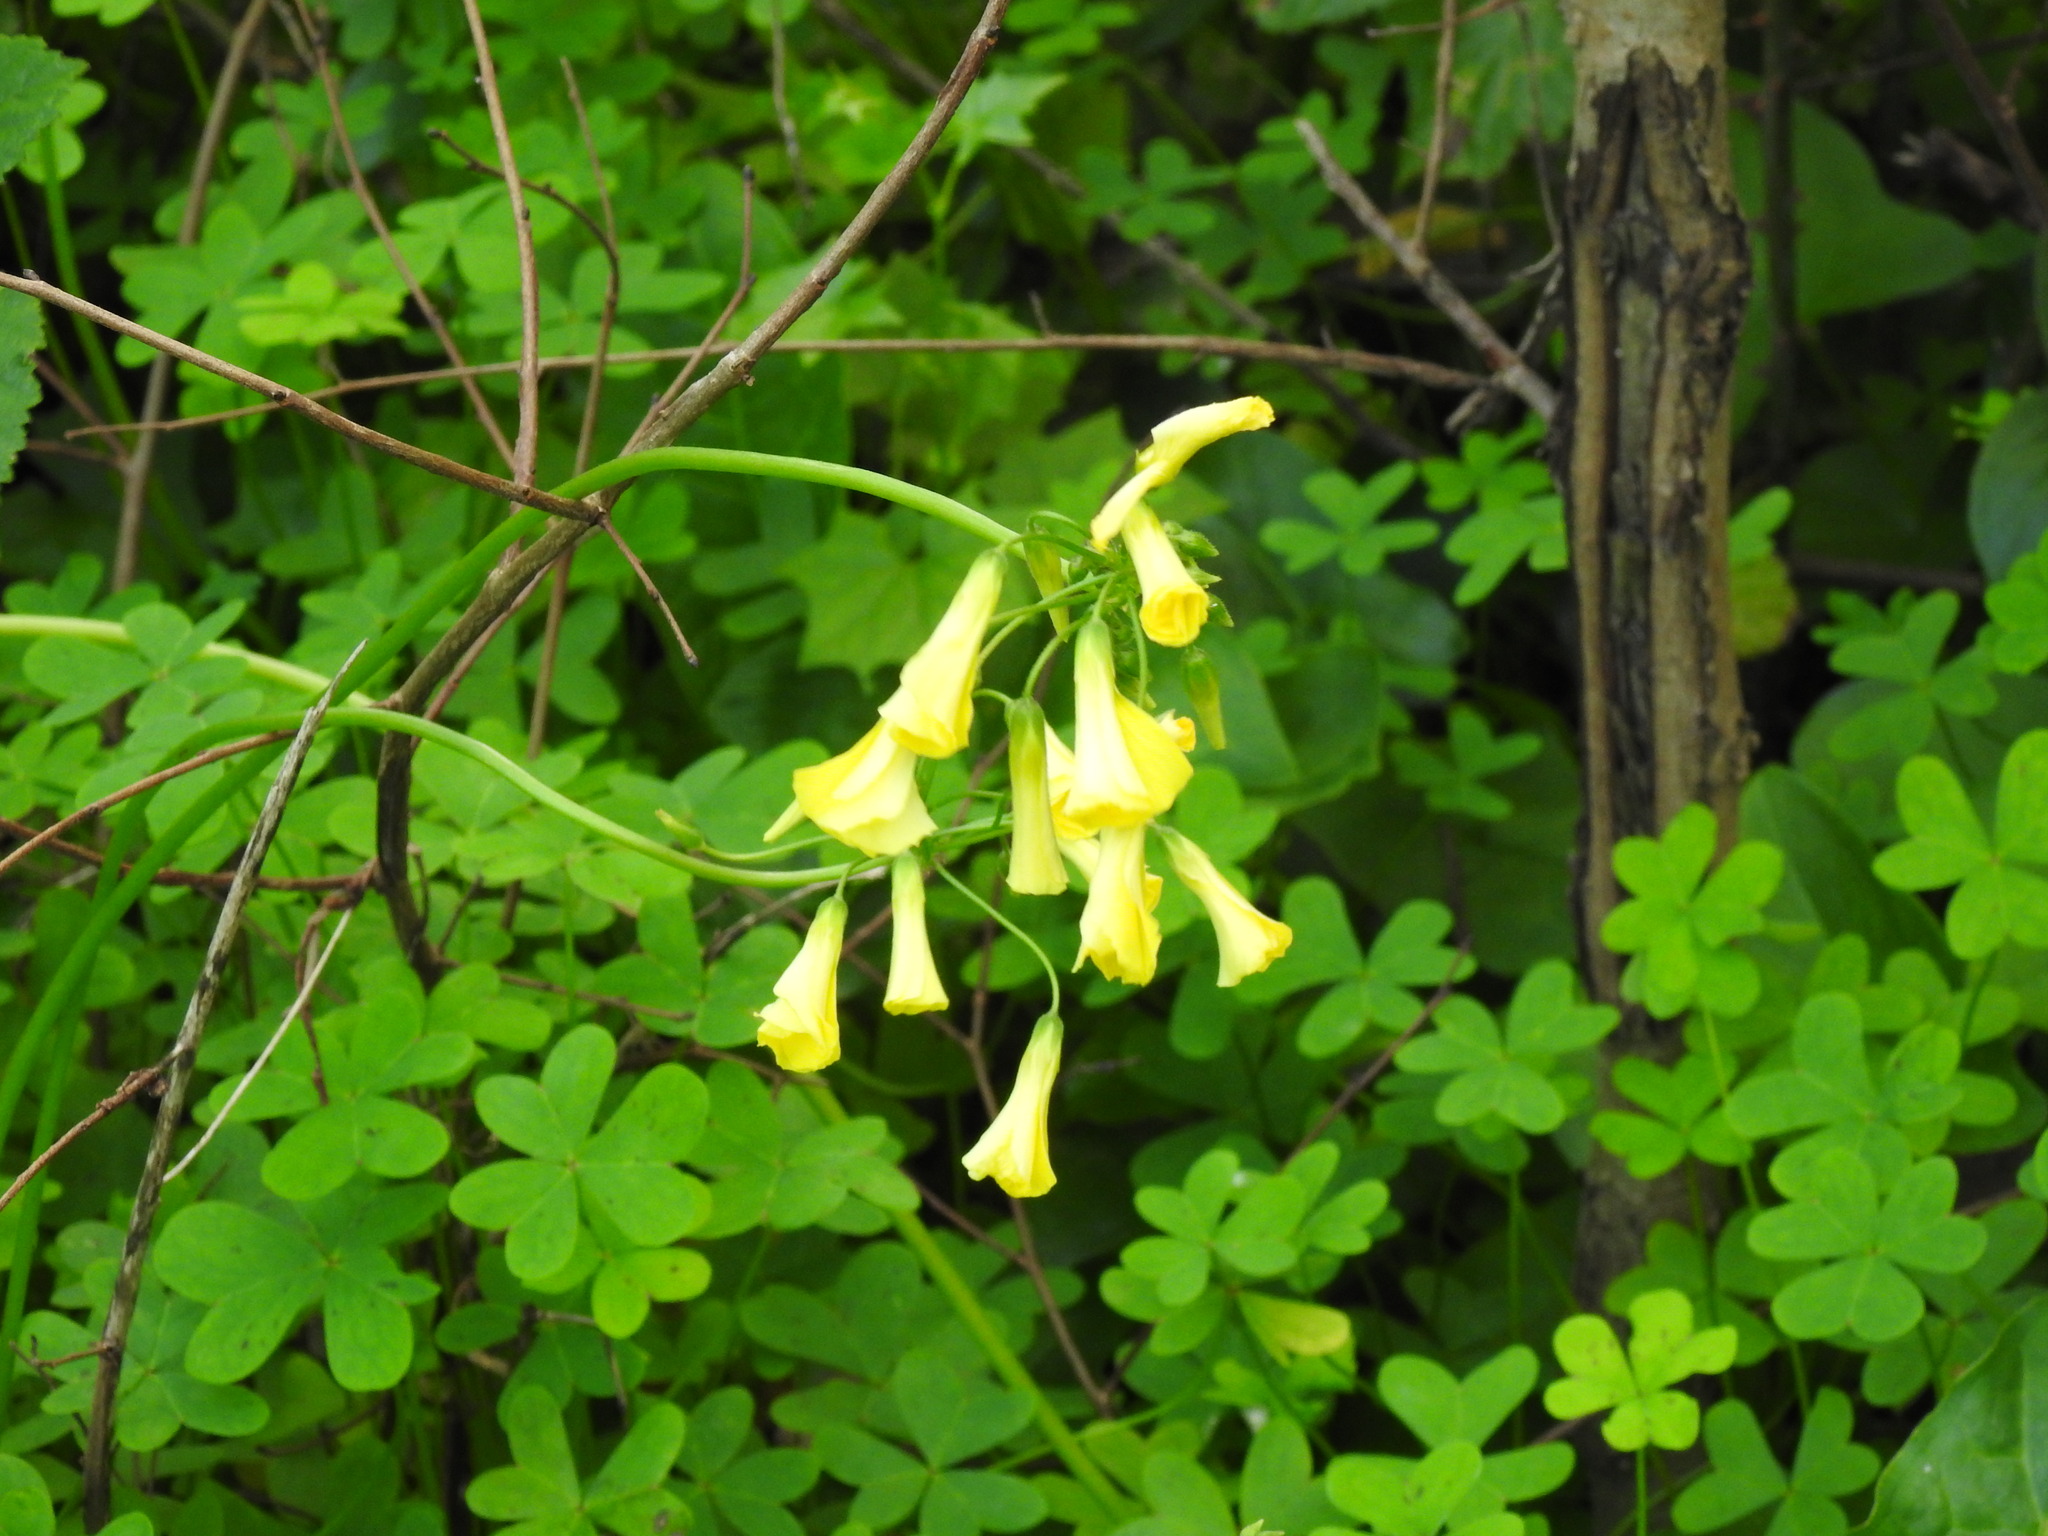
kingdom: Plantae
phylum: Tracheophyta
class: Magnoliopsida
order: Oxalidales
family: Oxalidaceae
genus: Oxalis
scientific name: Oxalis pes-caprae
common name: Bermuda-buttercup
